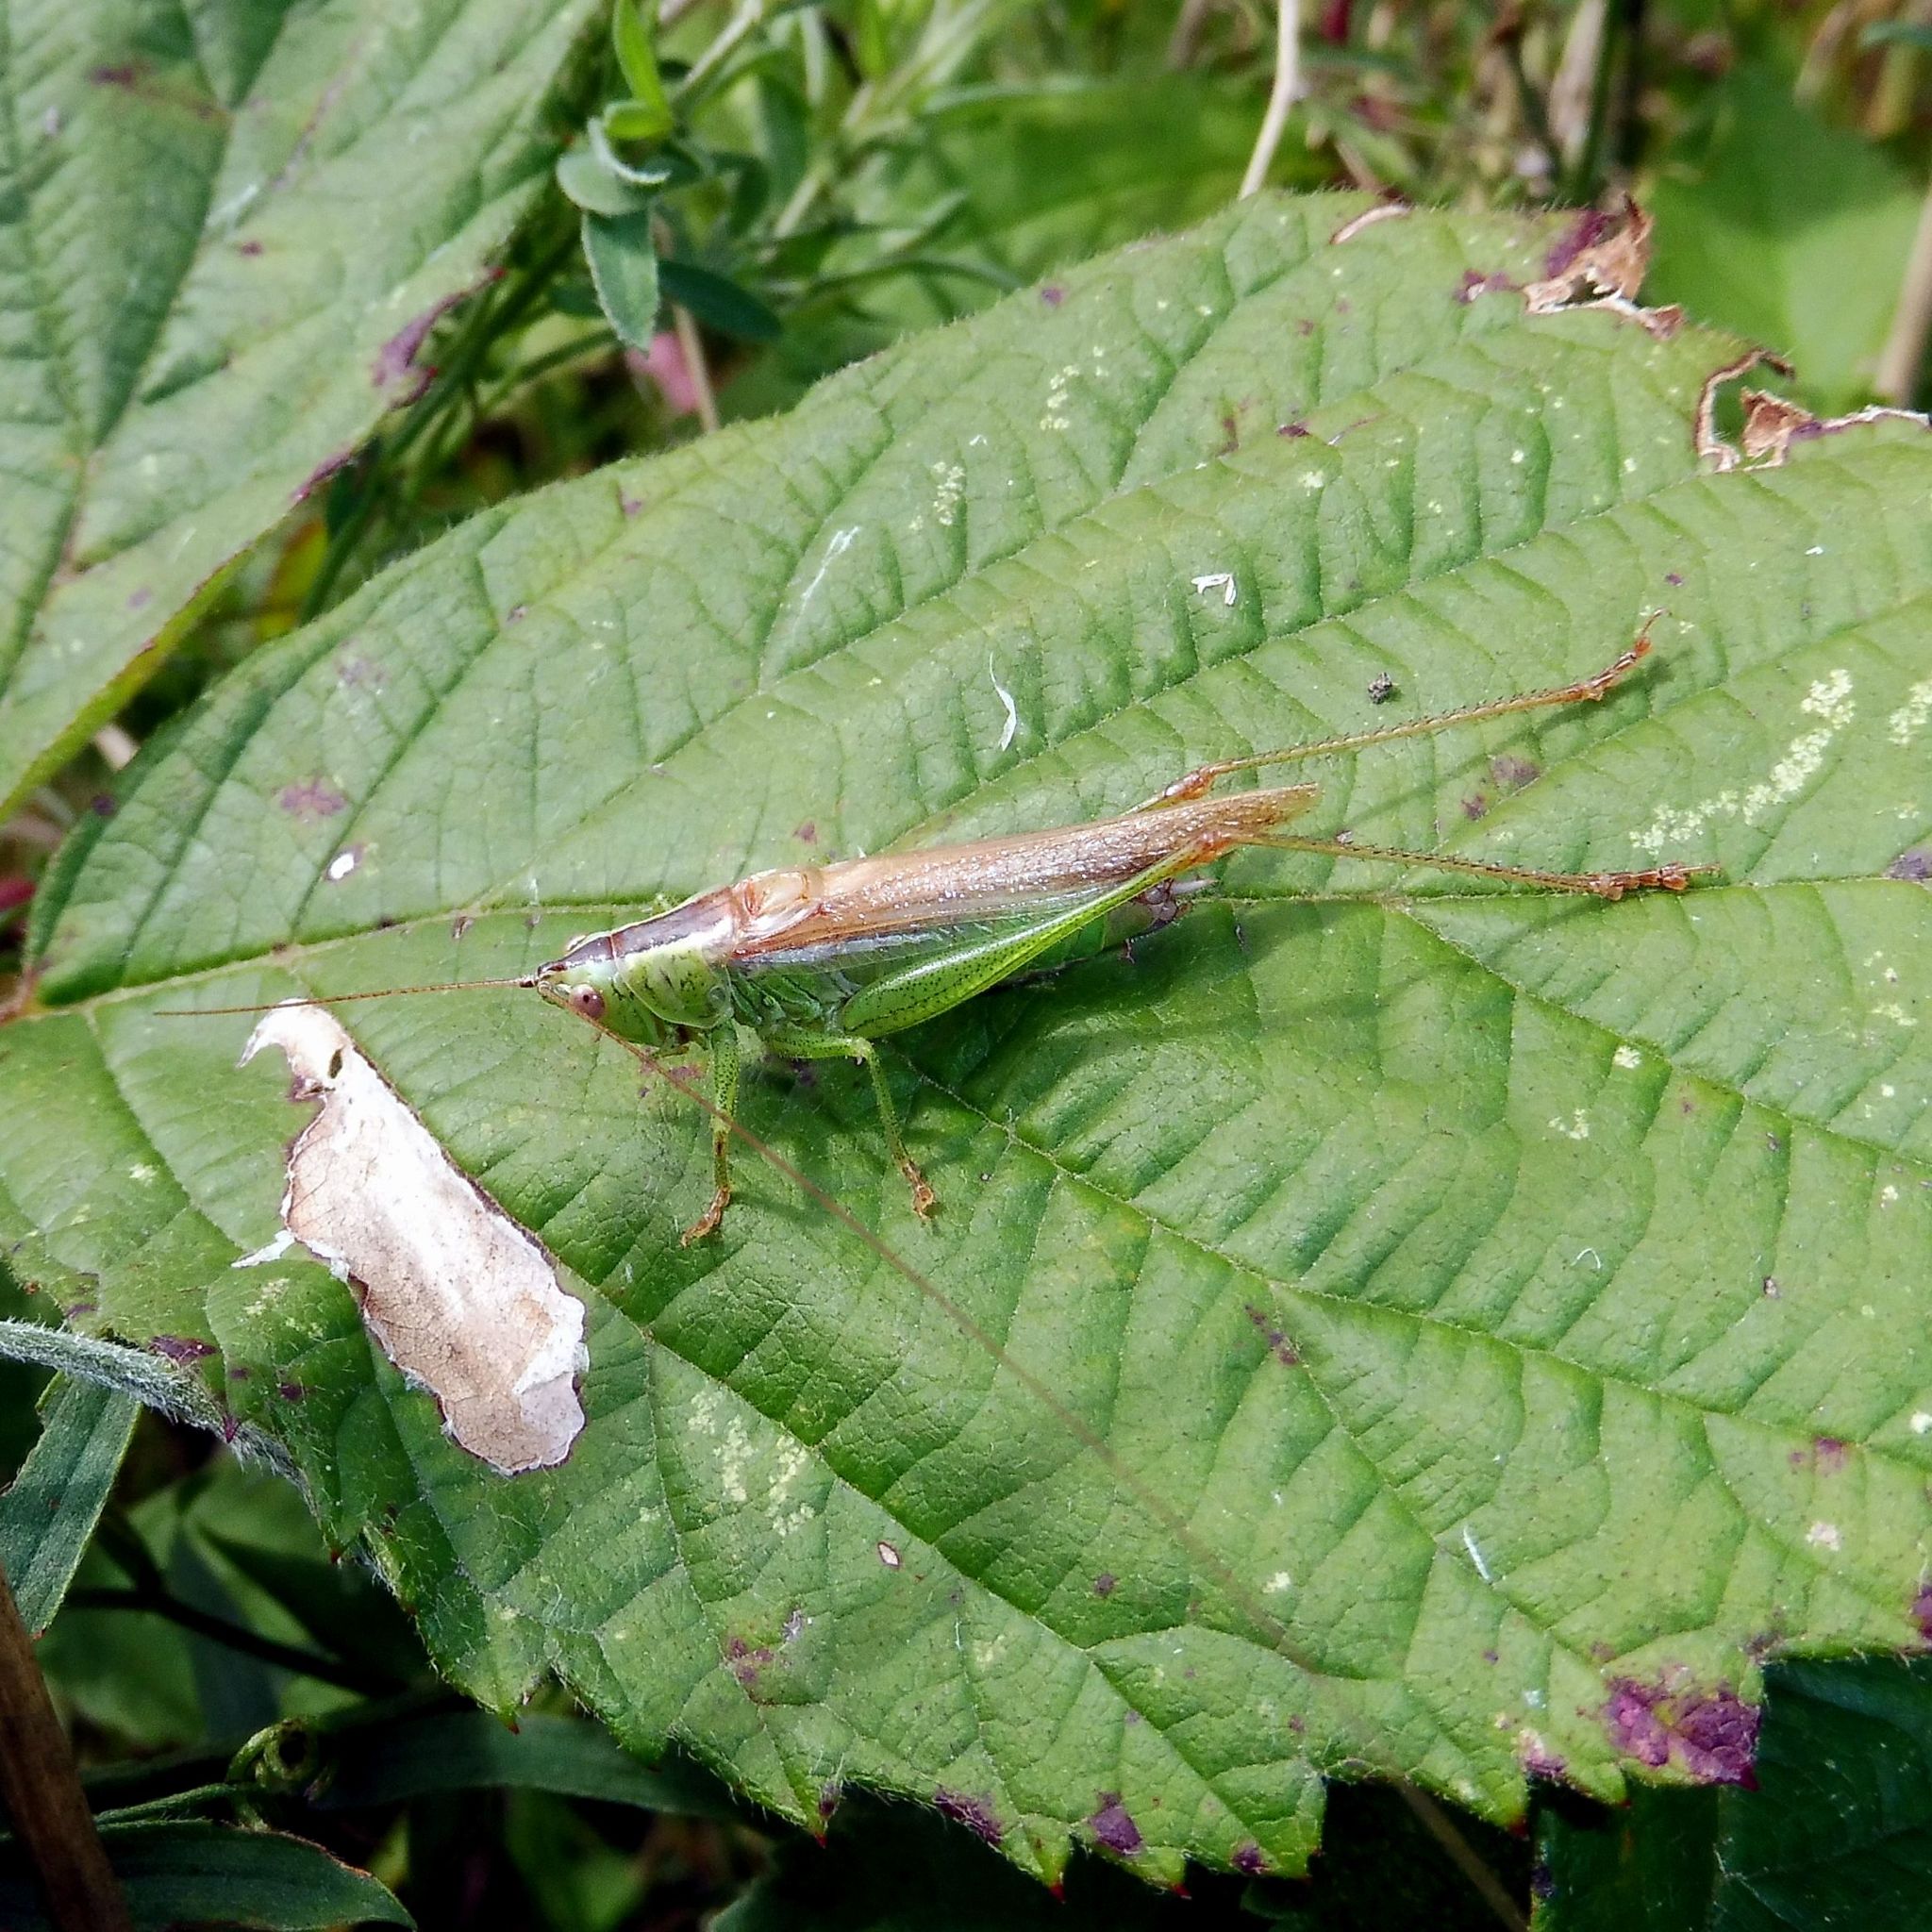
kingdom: Animalia
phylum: Arthropoda
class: Insecta
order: Orthoptera
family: Tettigoniidae
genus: Conocephalus
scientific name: Conocephalus fuscus
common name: Long-winged conehead
